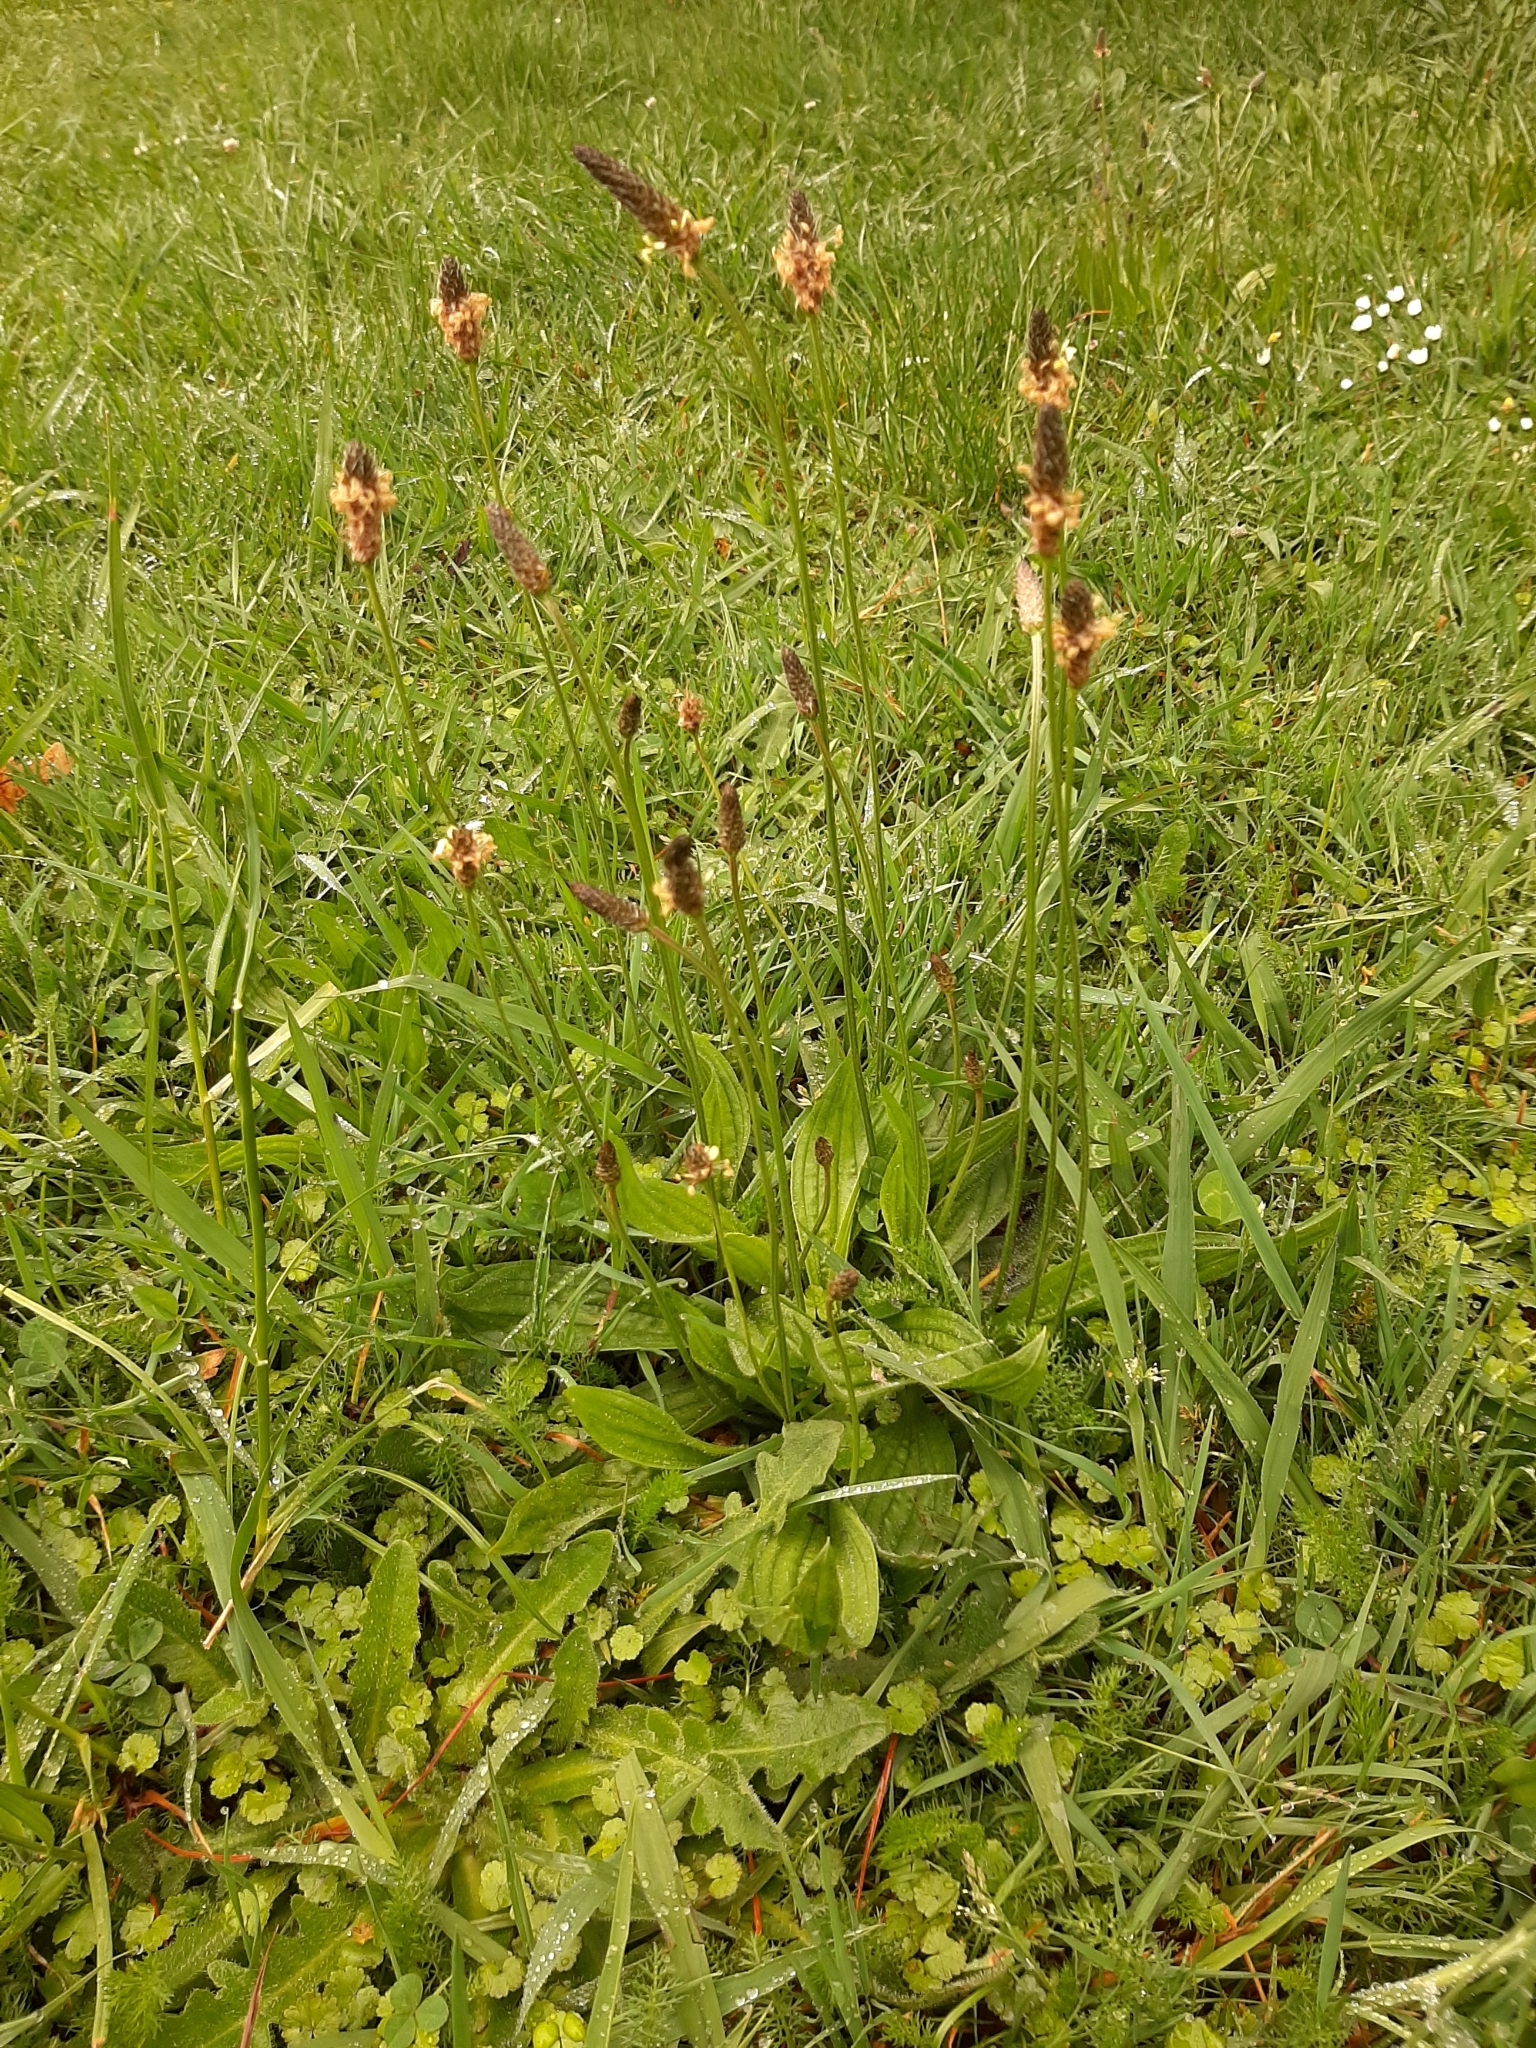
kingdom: Plantae
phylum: Tracheophyta
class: Magnoliopsida
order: Lamiales
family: Plantaginaceae
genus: Plantago
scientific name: Plantago lanceolata
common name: Ribwort plantain
